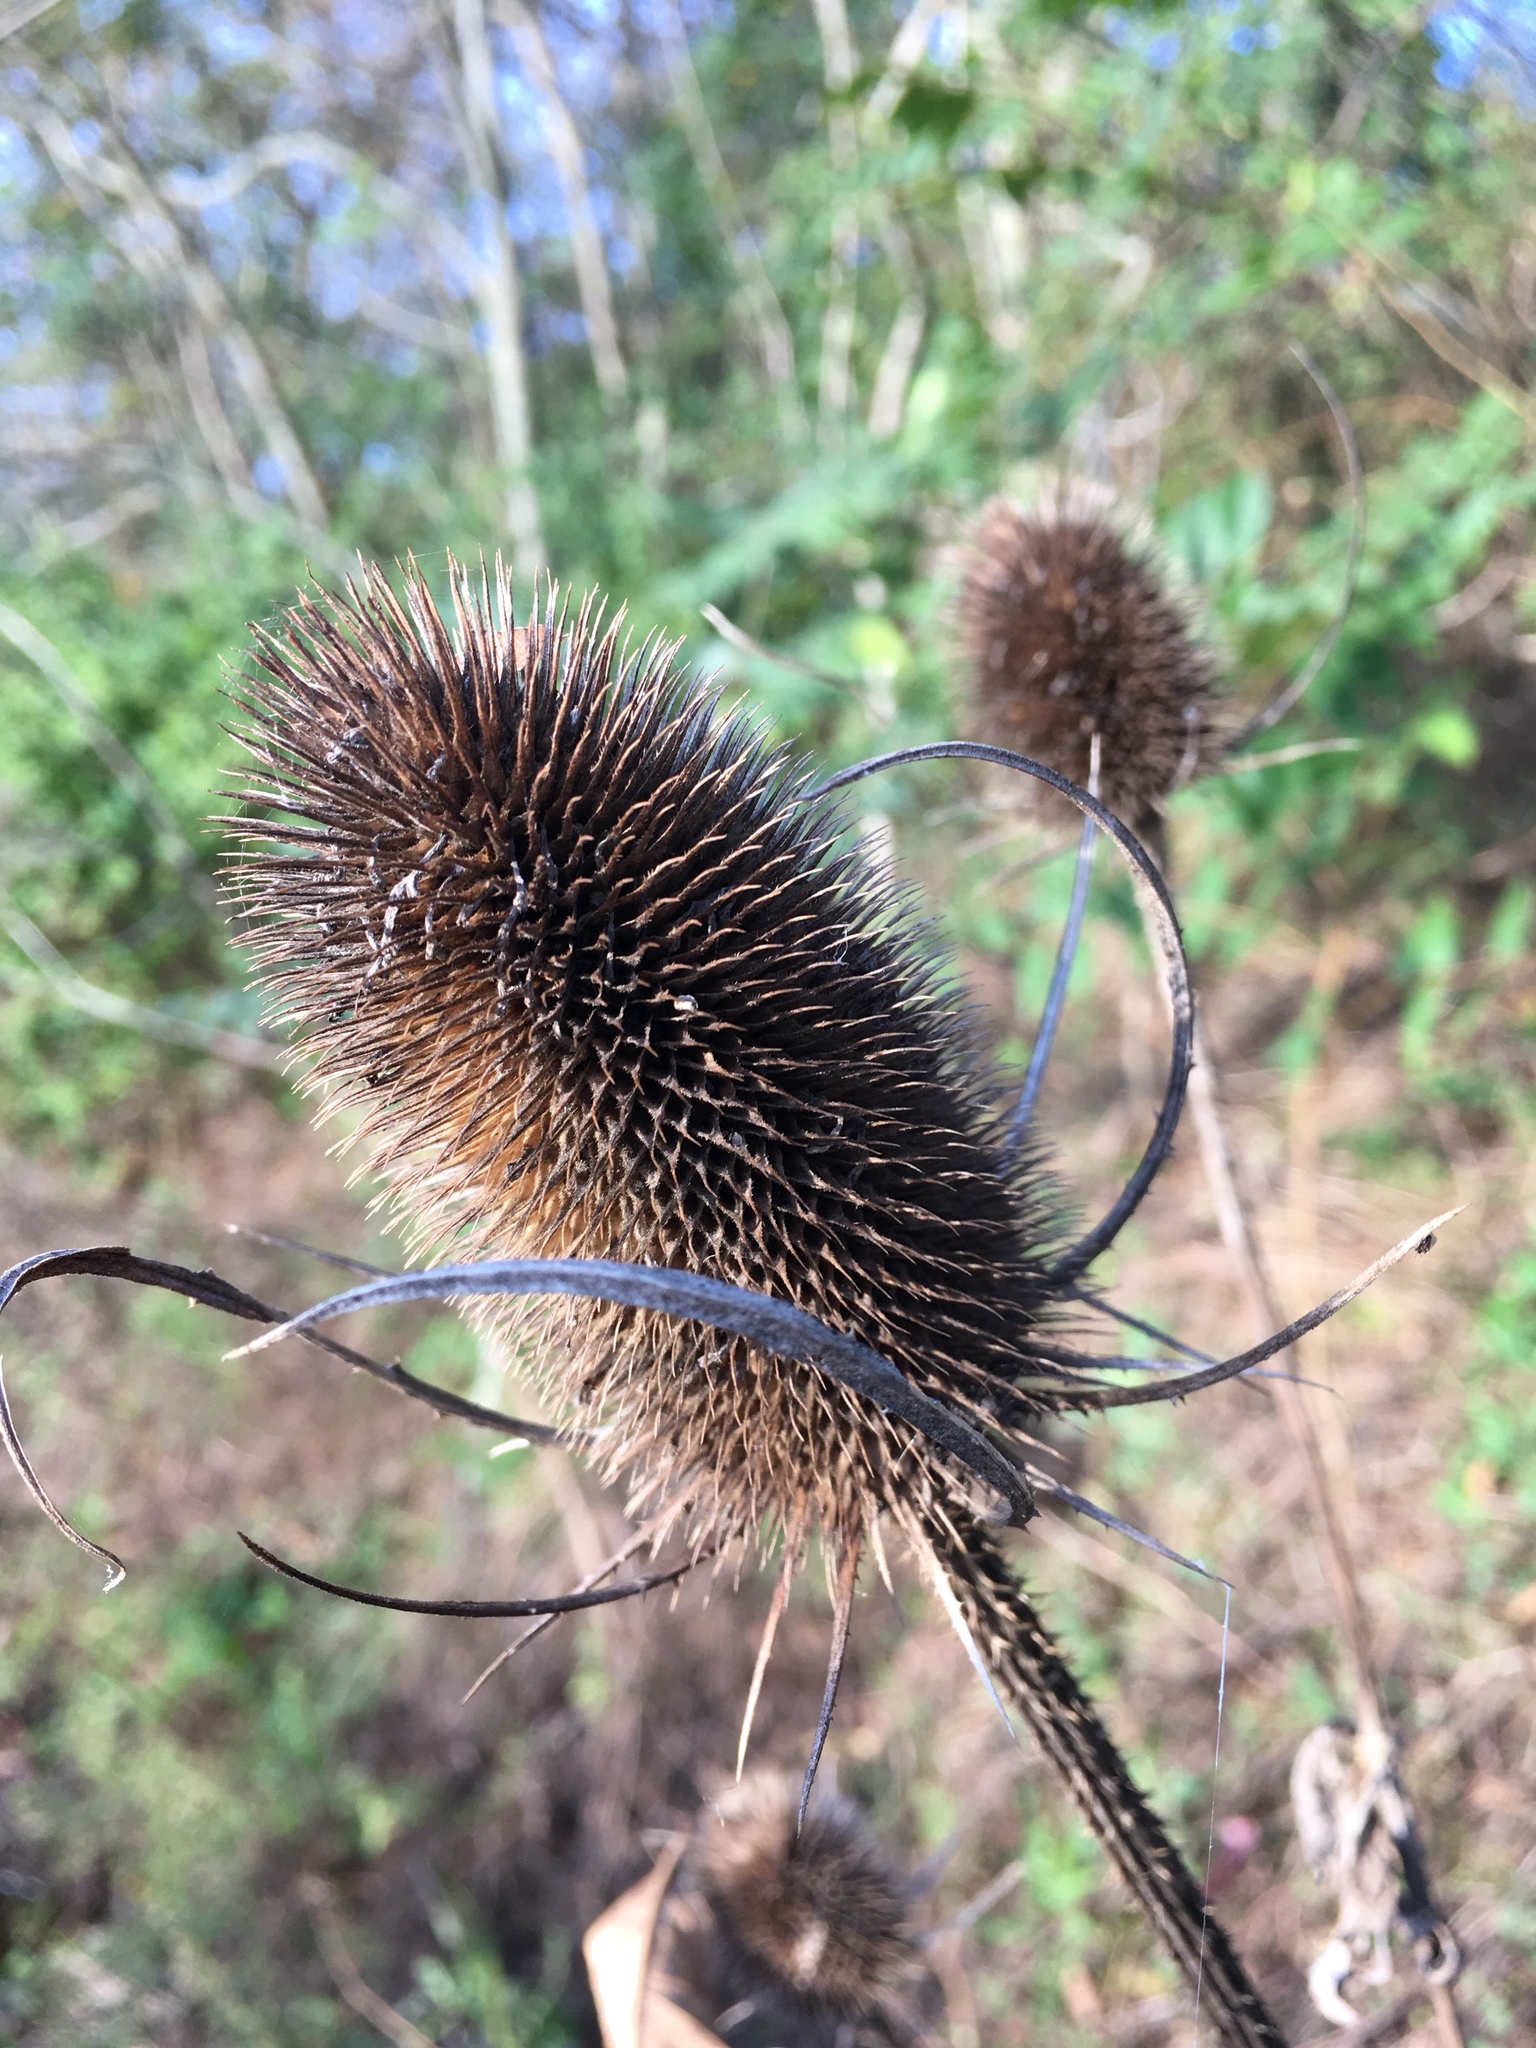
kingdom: Plantae
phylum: Tracheophyta
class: Magnoliopsida
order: Dipsacales
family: Caprifoliaceae
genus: Dipsacus
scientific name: Dipsacus fullonum
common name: Teasel
